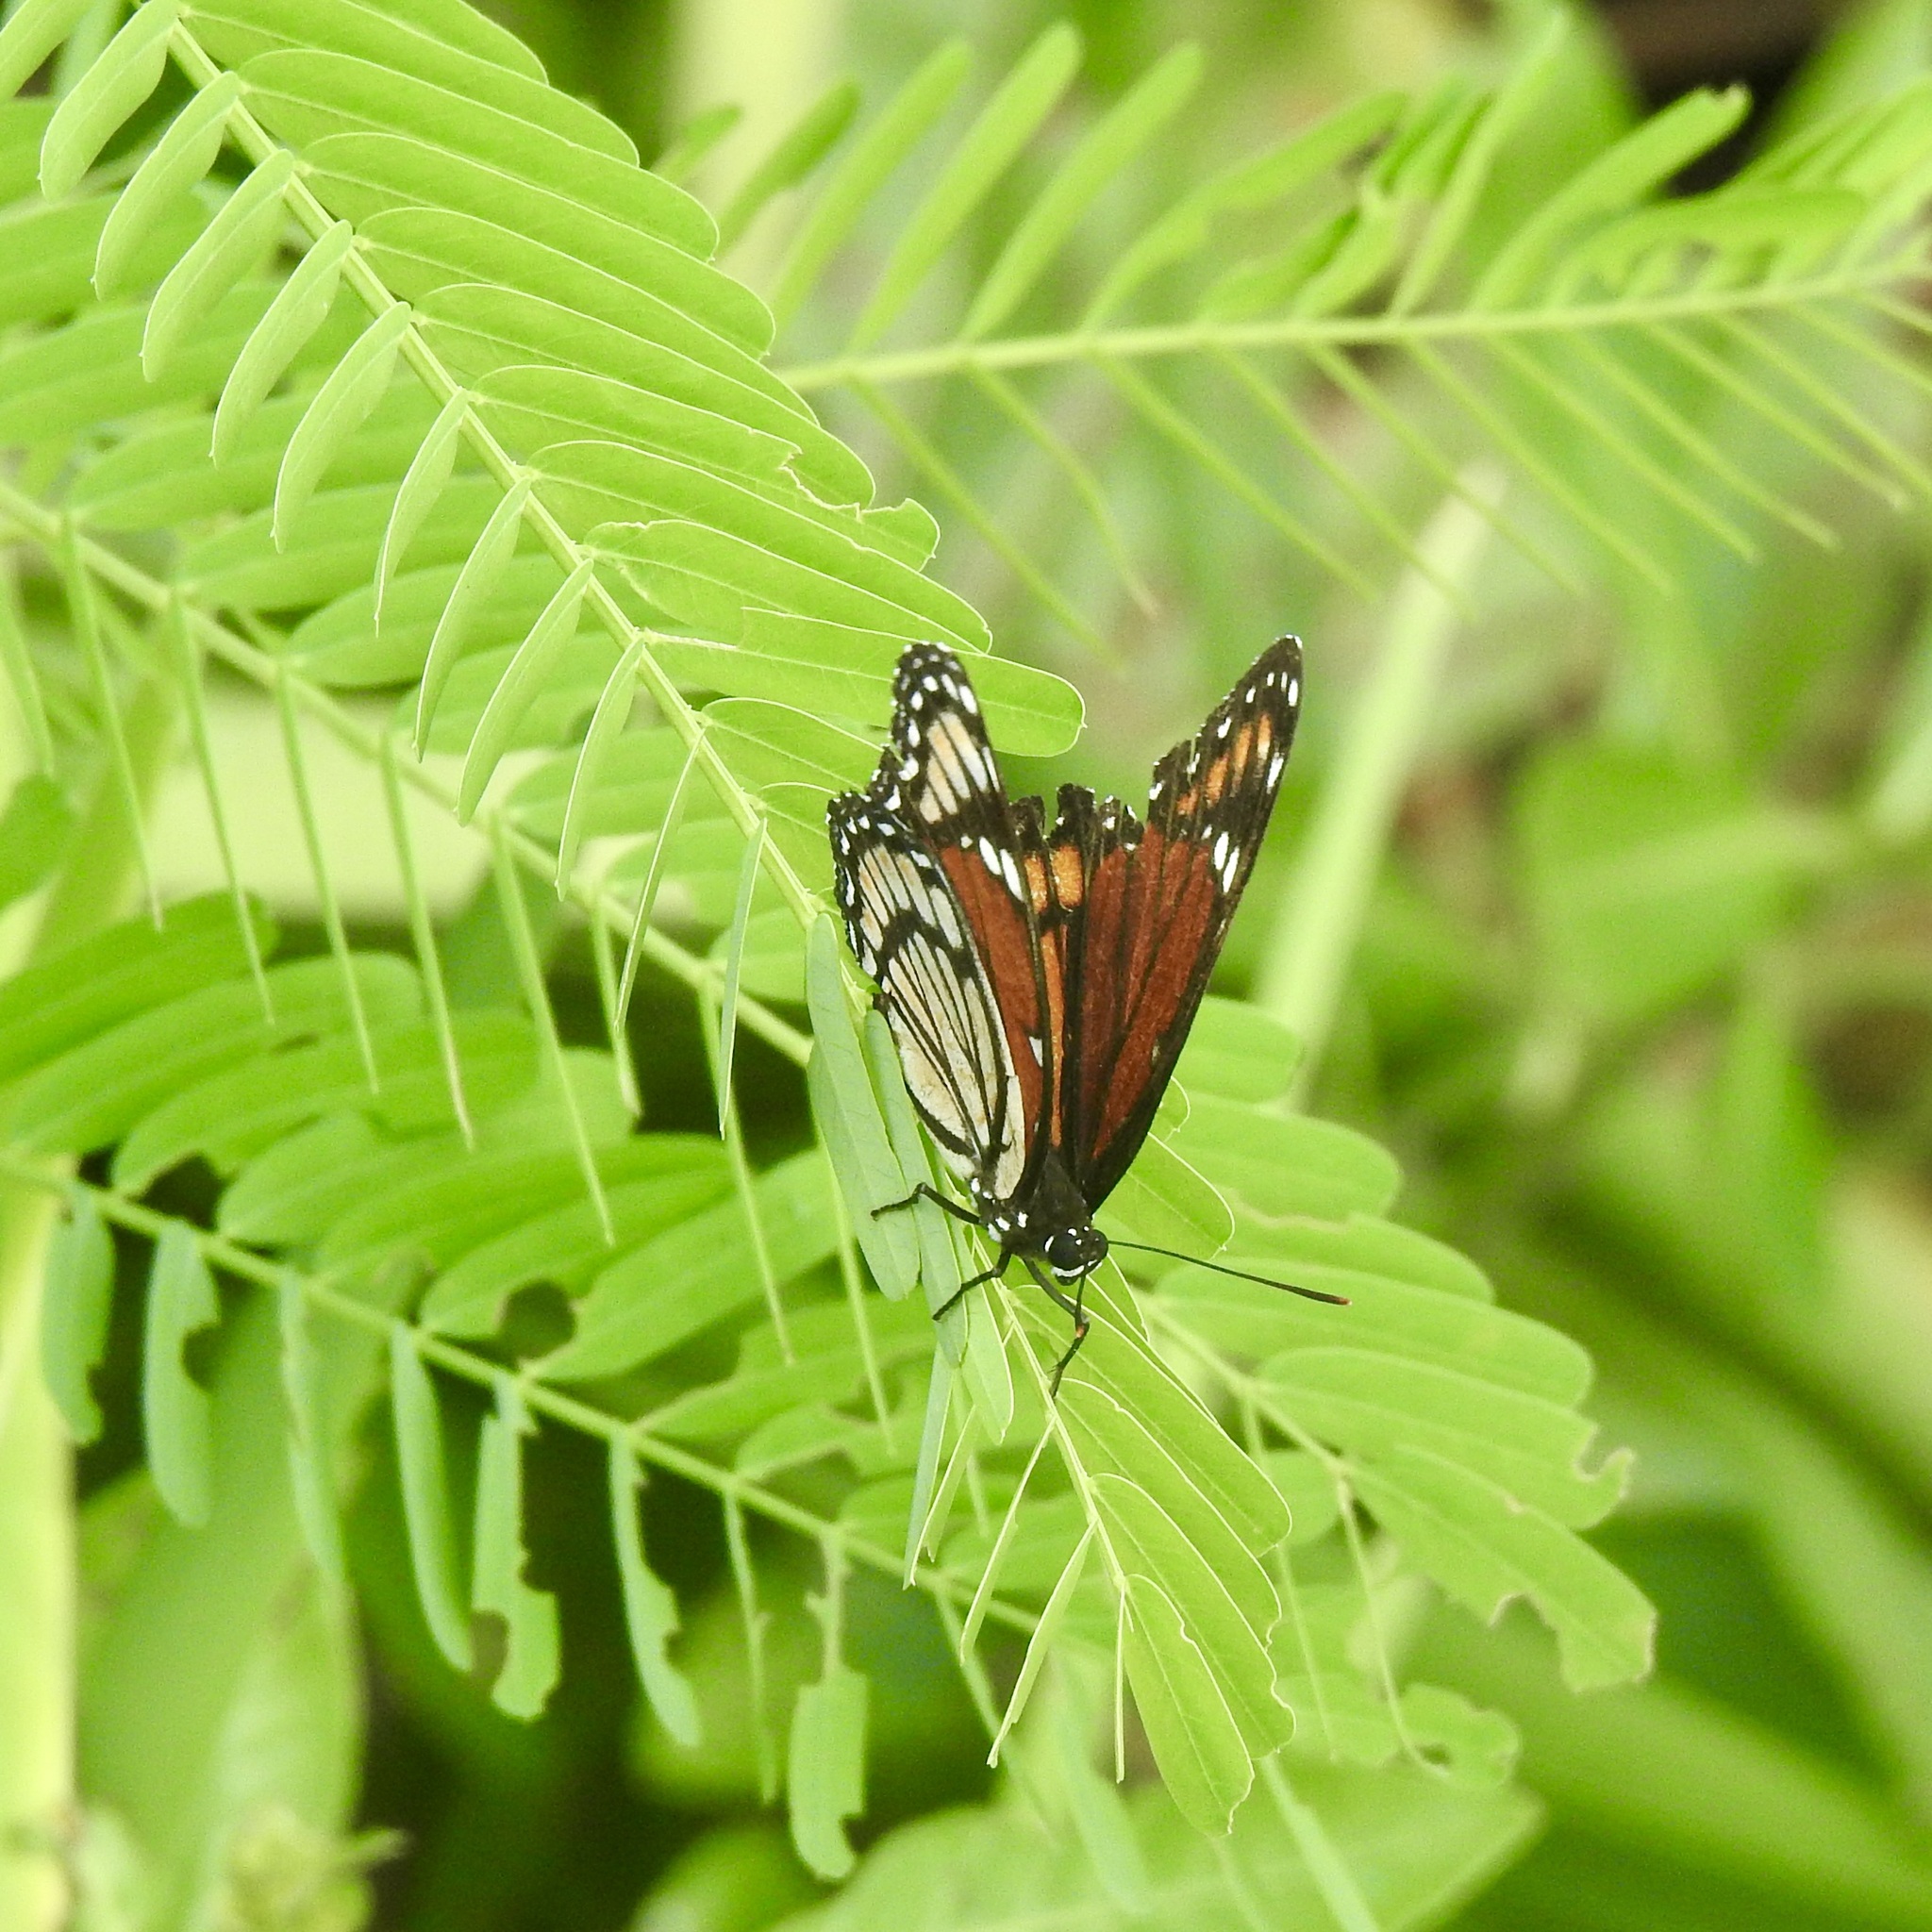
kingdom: Animalia
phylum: Arthropoda
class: Insecta
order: Lepidoptera
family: Nymphalidae
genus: Limenitis
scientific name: Limenitis archippus
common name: Viceroy
